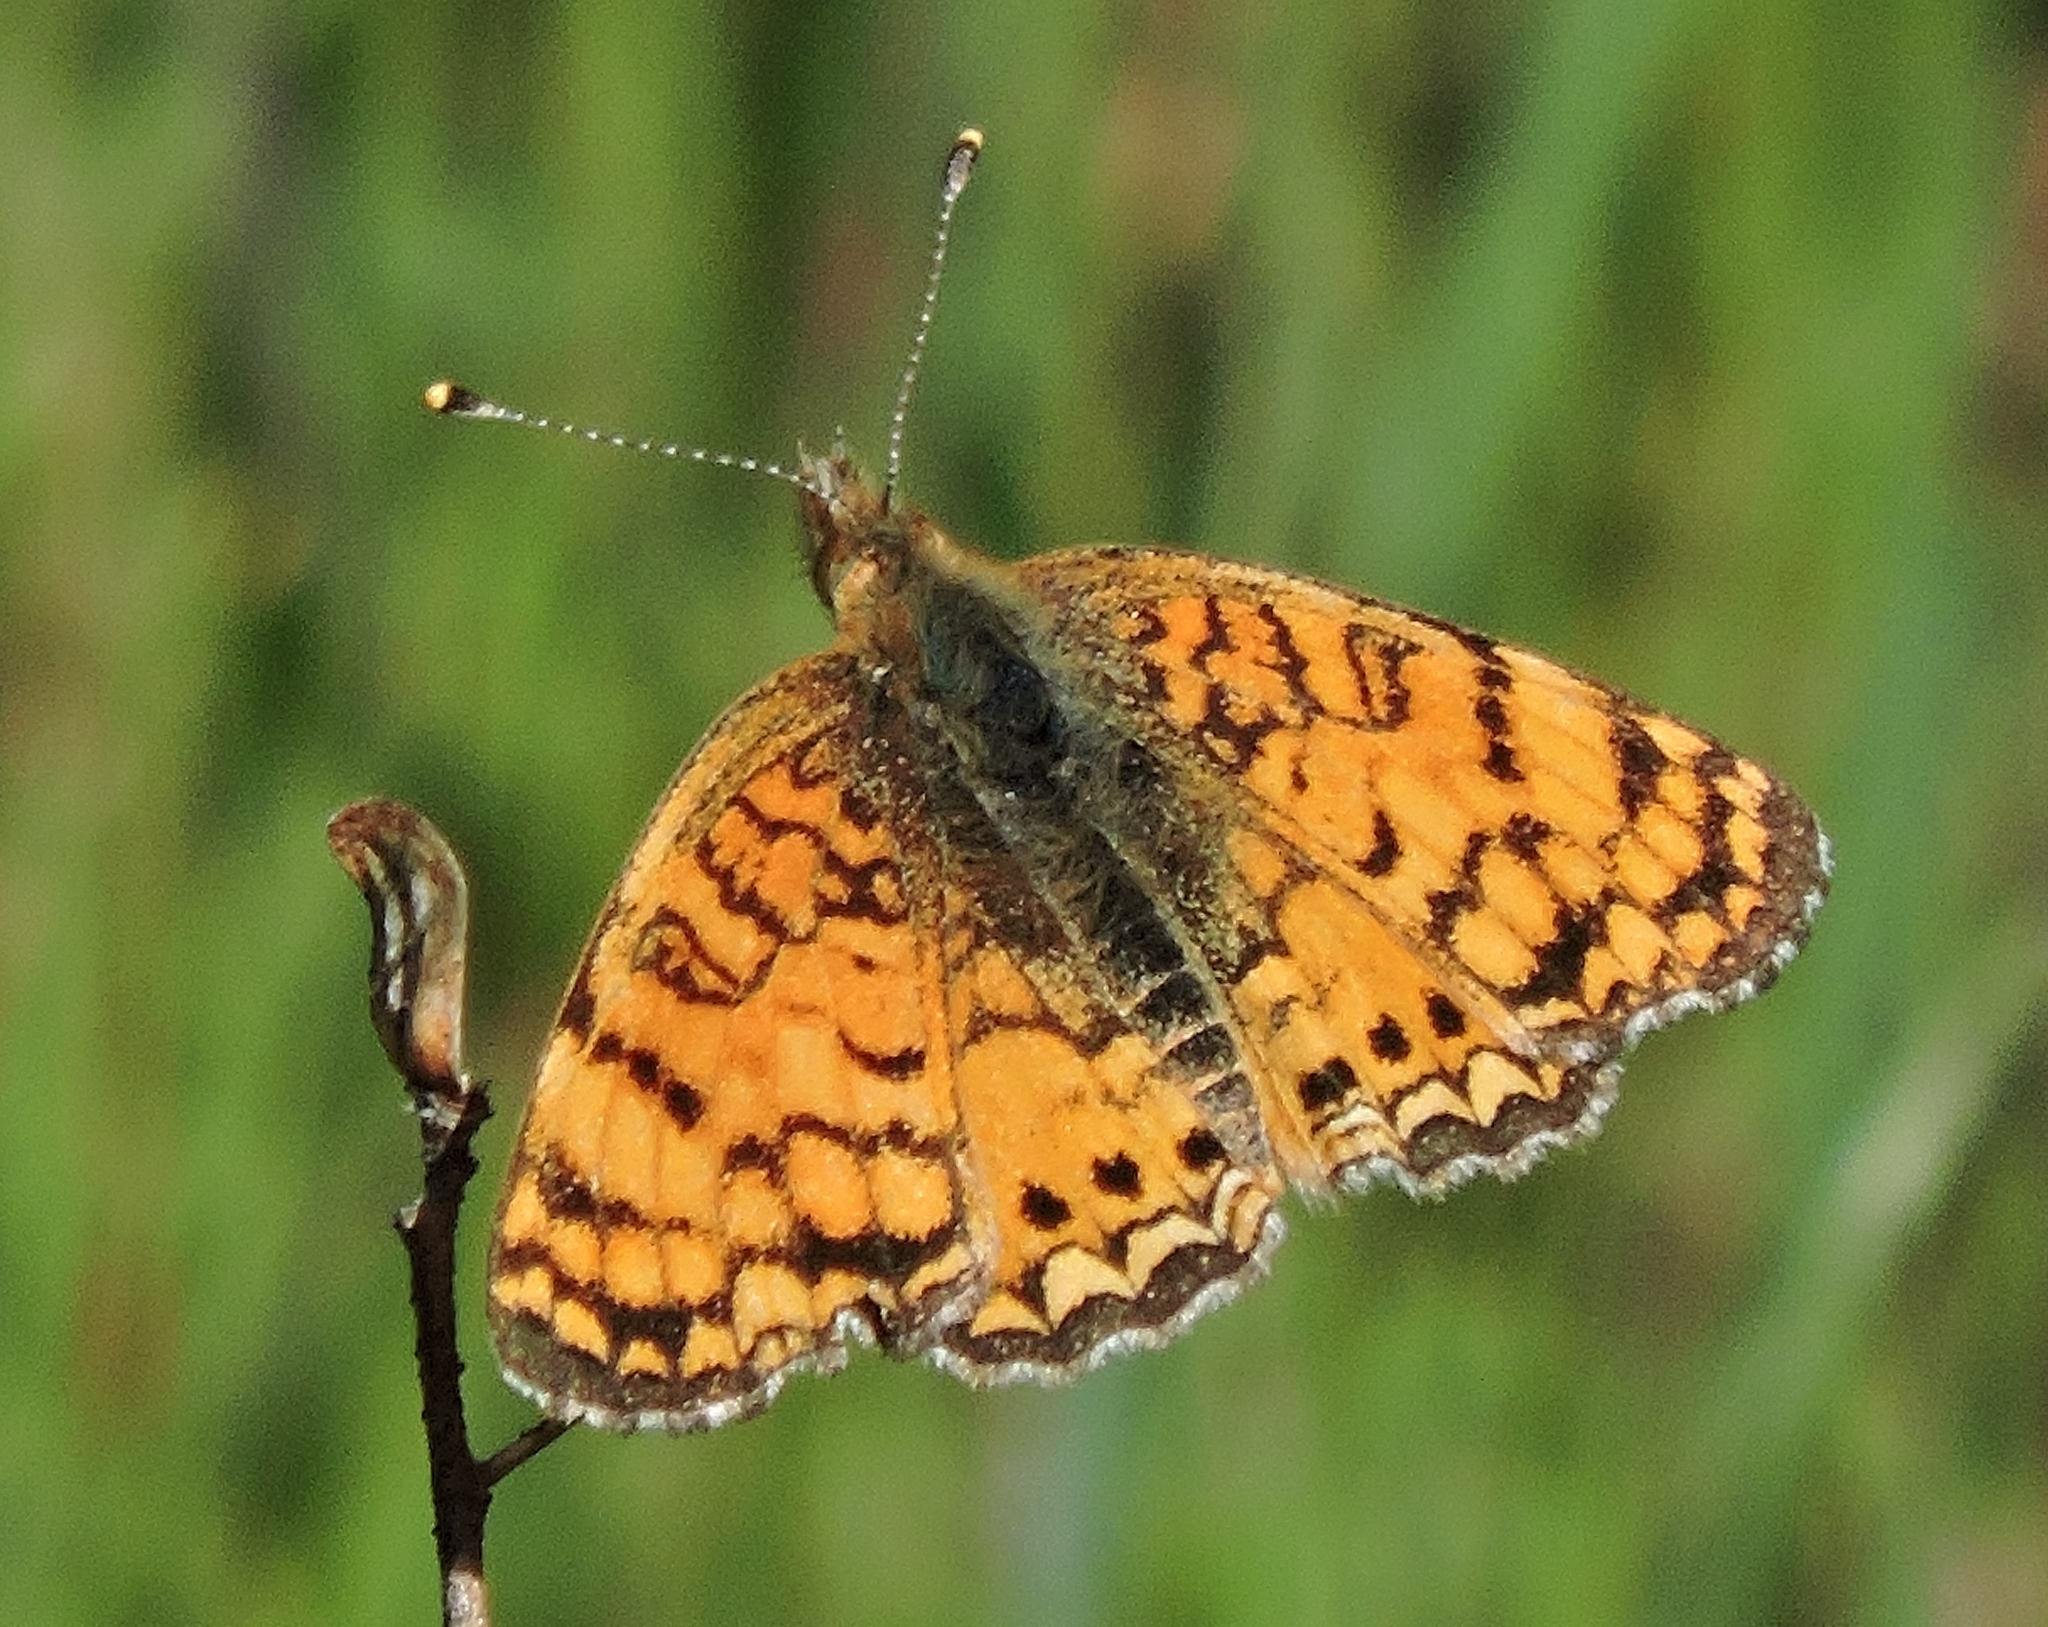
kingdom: Animalia
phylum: Arthropoda
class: Insecta
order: Lepidoptera
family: Nymphalidae
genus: Eresia
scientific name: Eresia aveyrona
